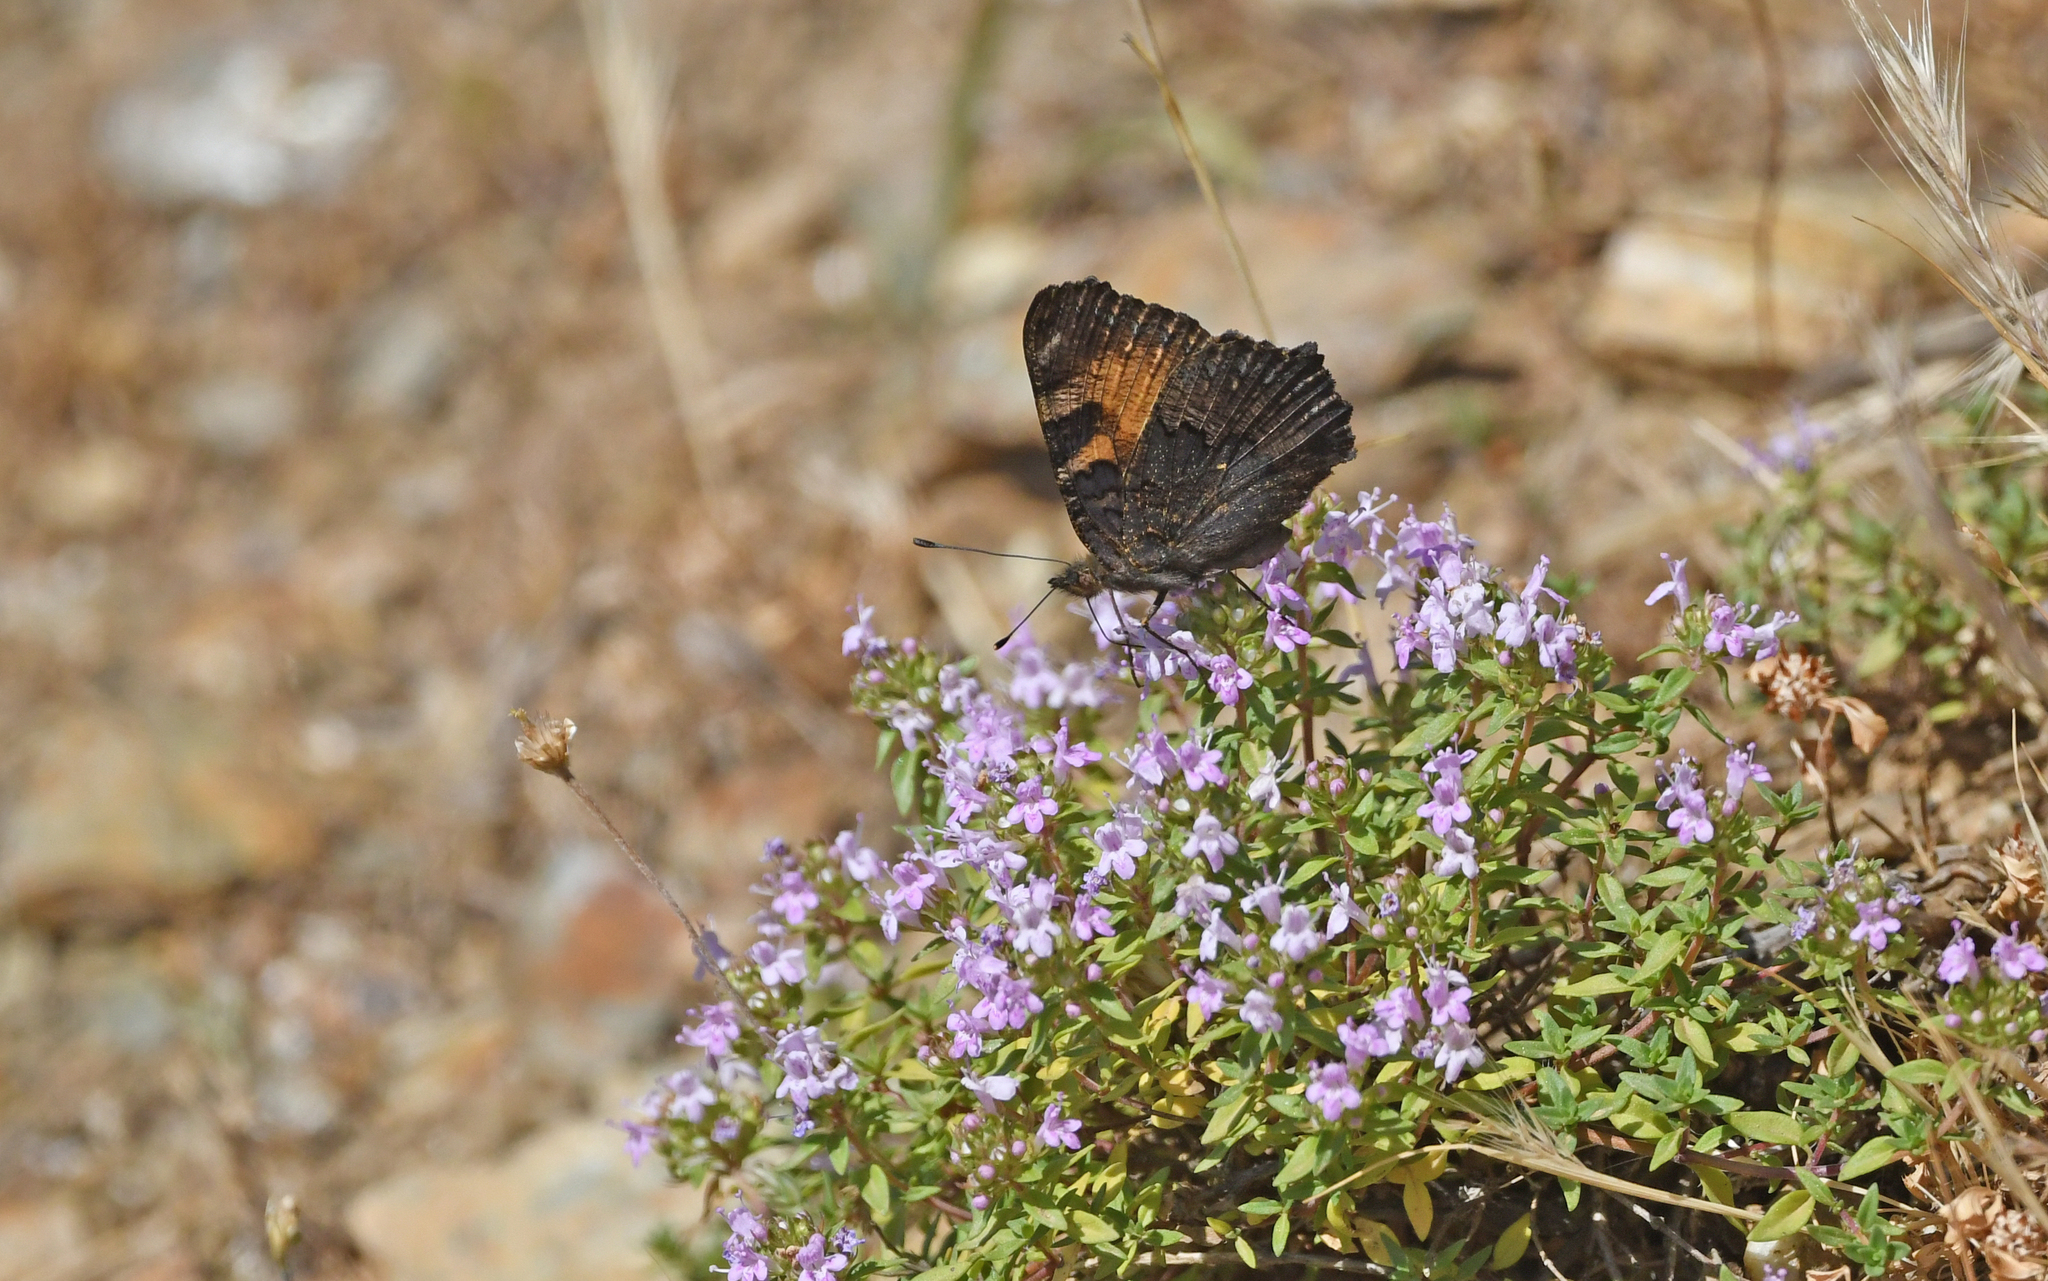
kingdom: Animalia
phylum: Arthropoda
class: Insecta
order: Lepidoptera
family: Nymphalidae
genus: Aglais
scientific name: Aglais ichnusa
